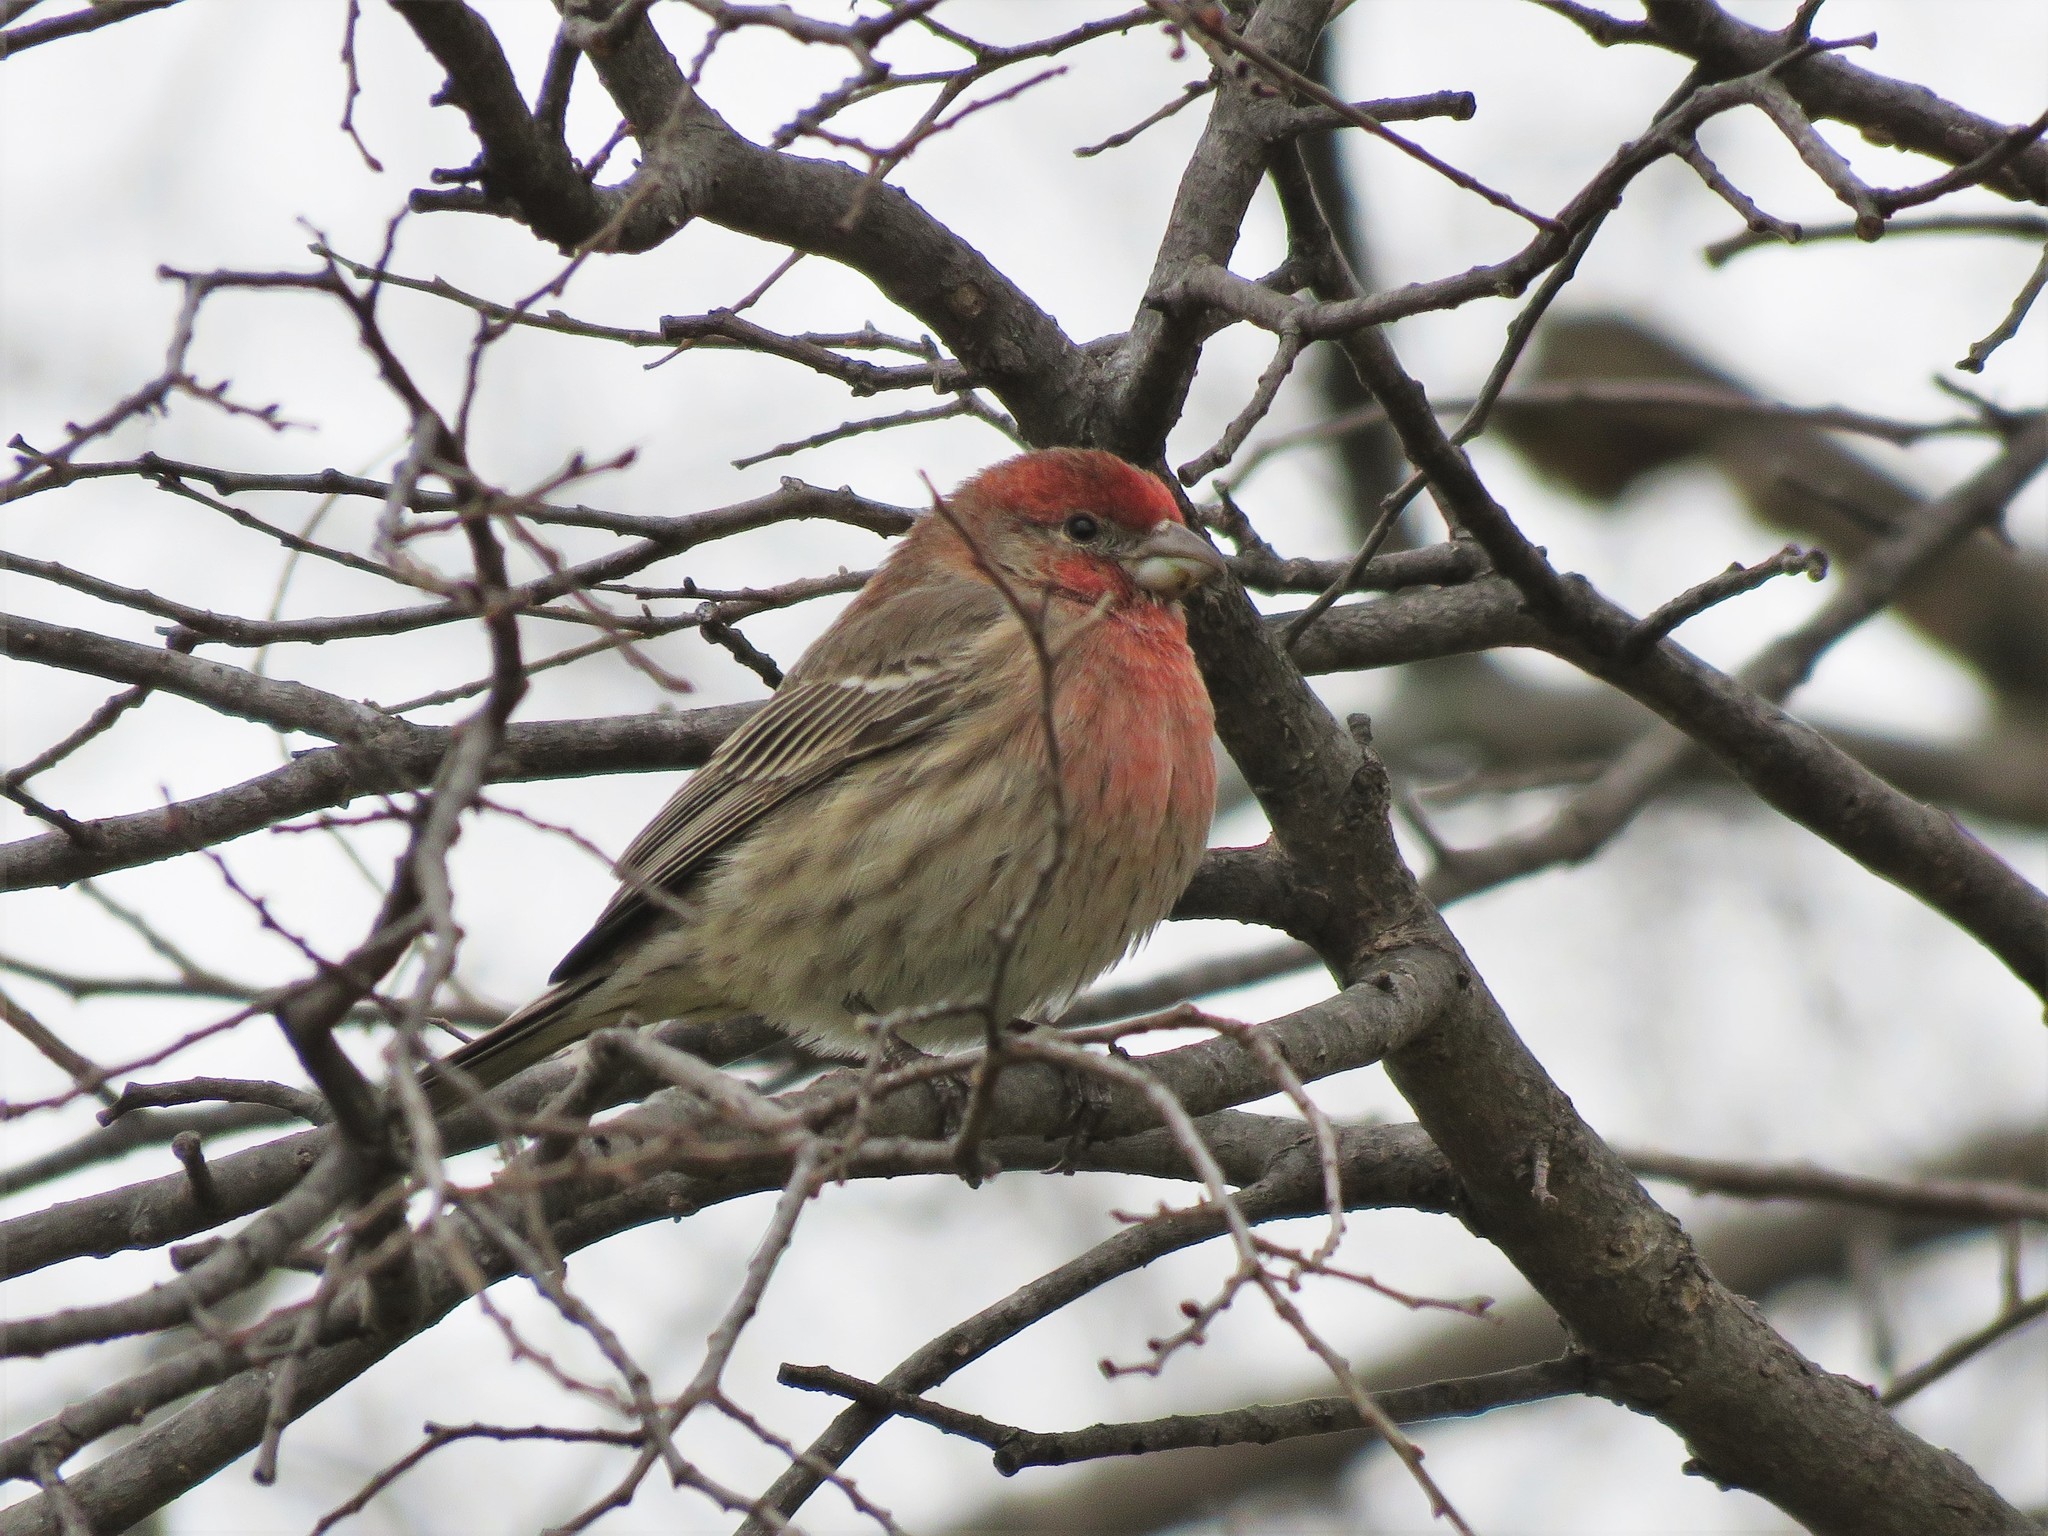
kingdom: Animalia
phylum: Chordata
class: Aves
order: Passeriformes
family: Fringillidae
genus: Haemorhous
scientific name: Haemorhous mexicanus
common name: House finch
